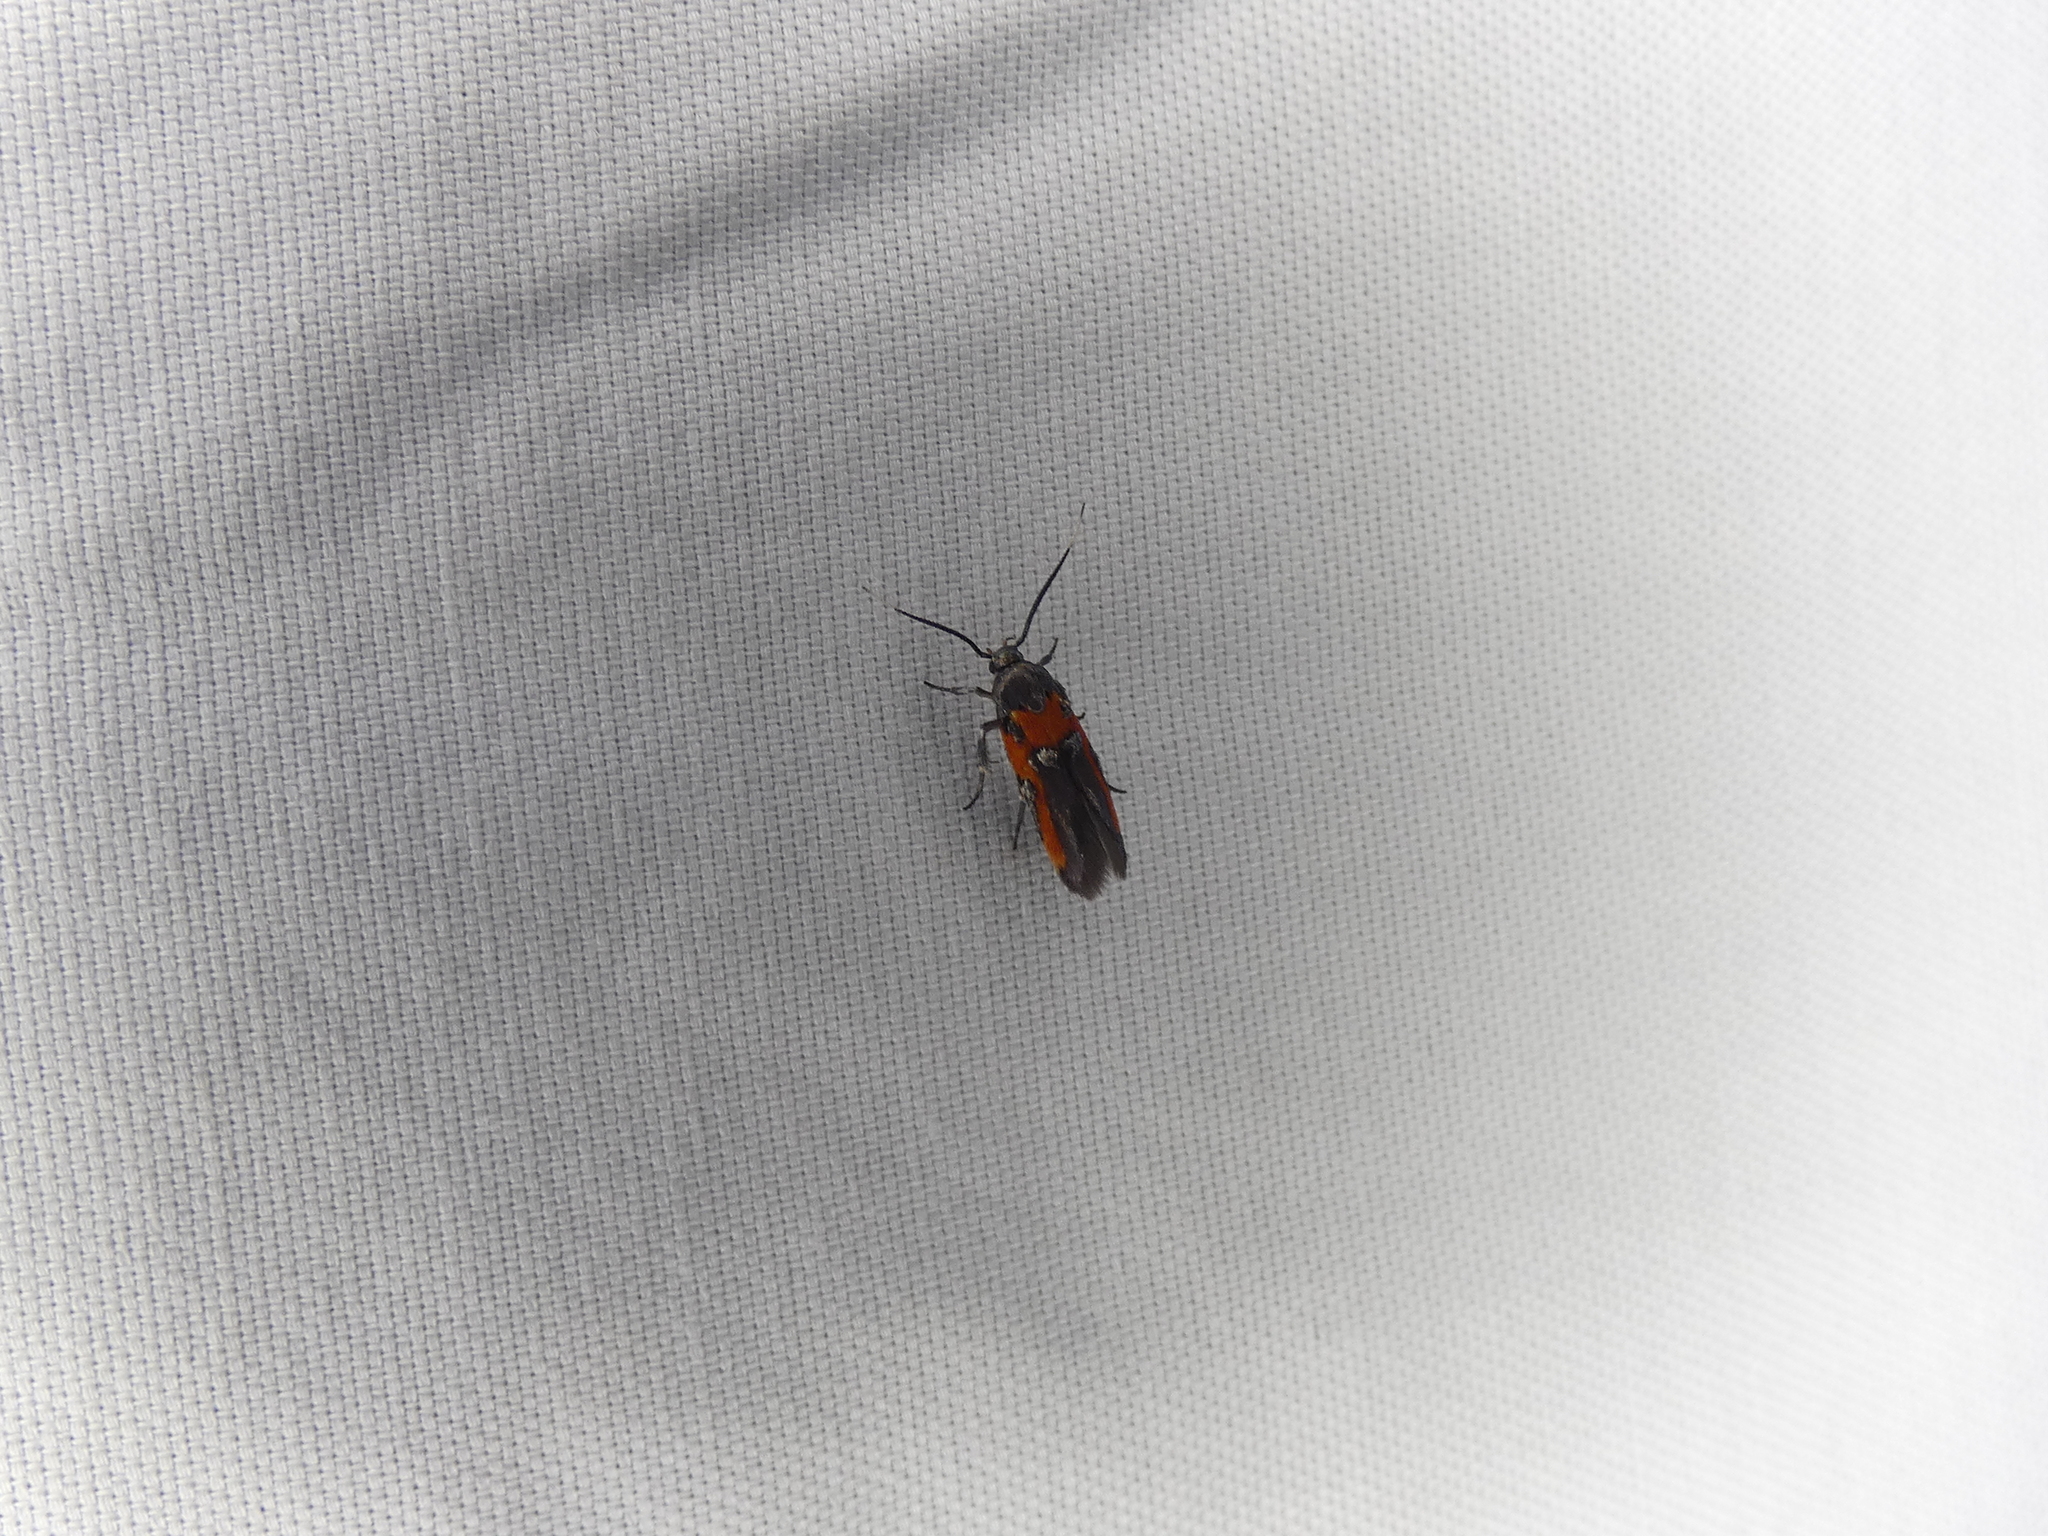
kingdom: Animalia
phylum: Arthropoda
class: Insecta
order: Lepidoptera
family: Cosmopterigidae
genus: Euclemensia
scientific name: Euclemensia bassettella
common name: Kermes scale moth
